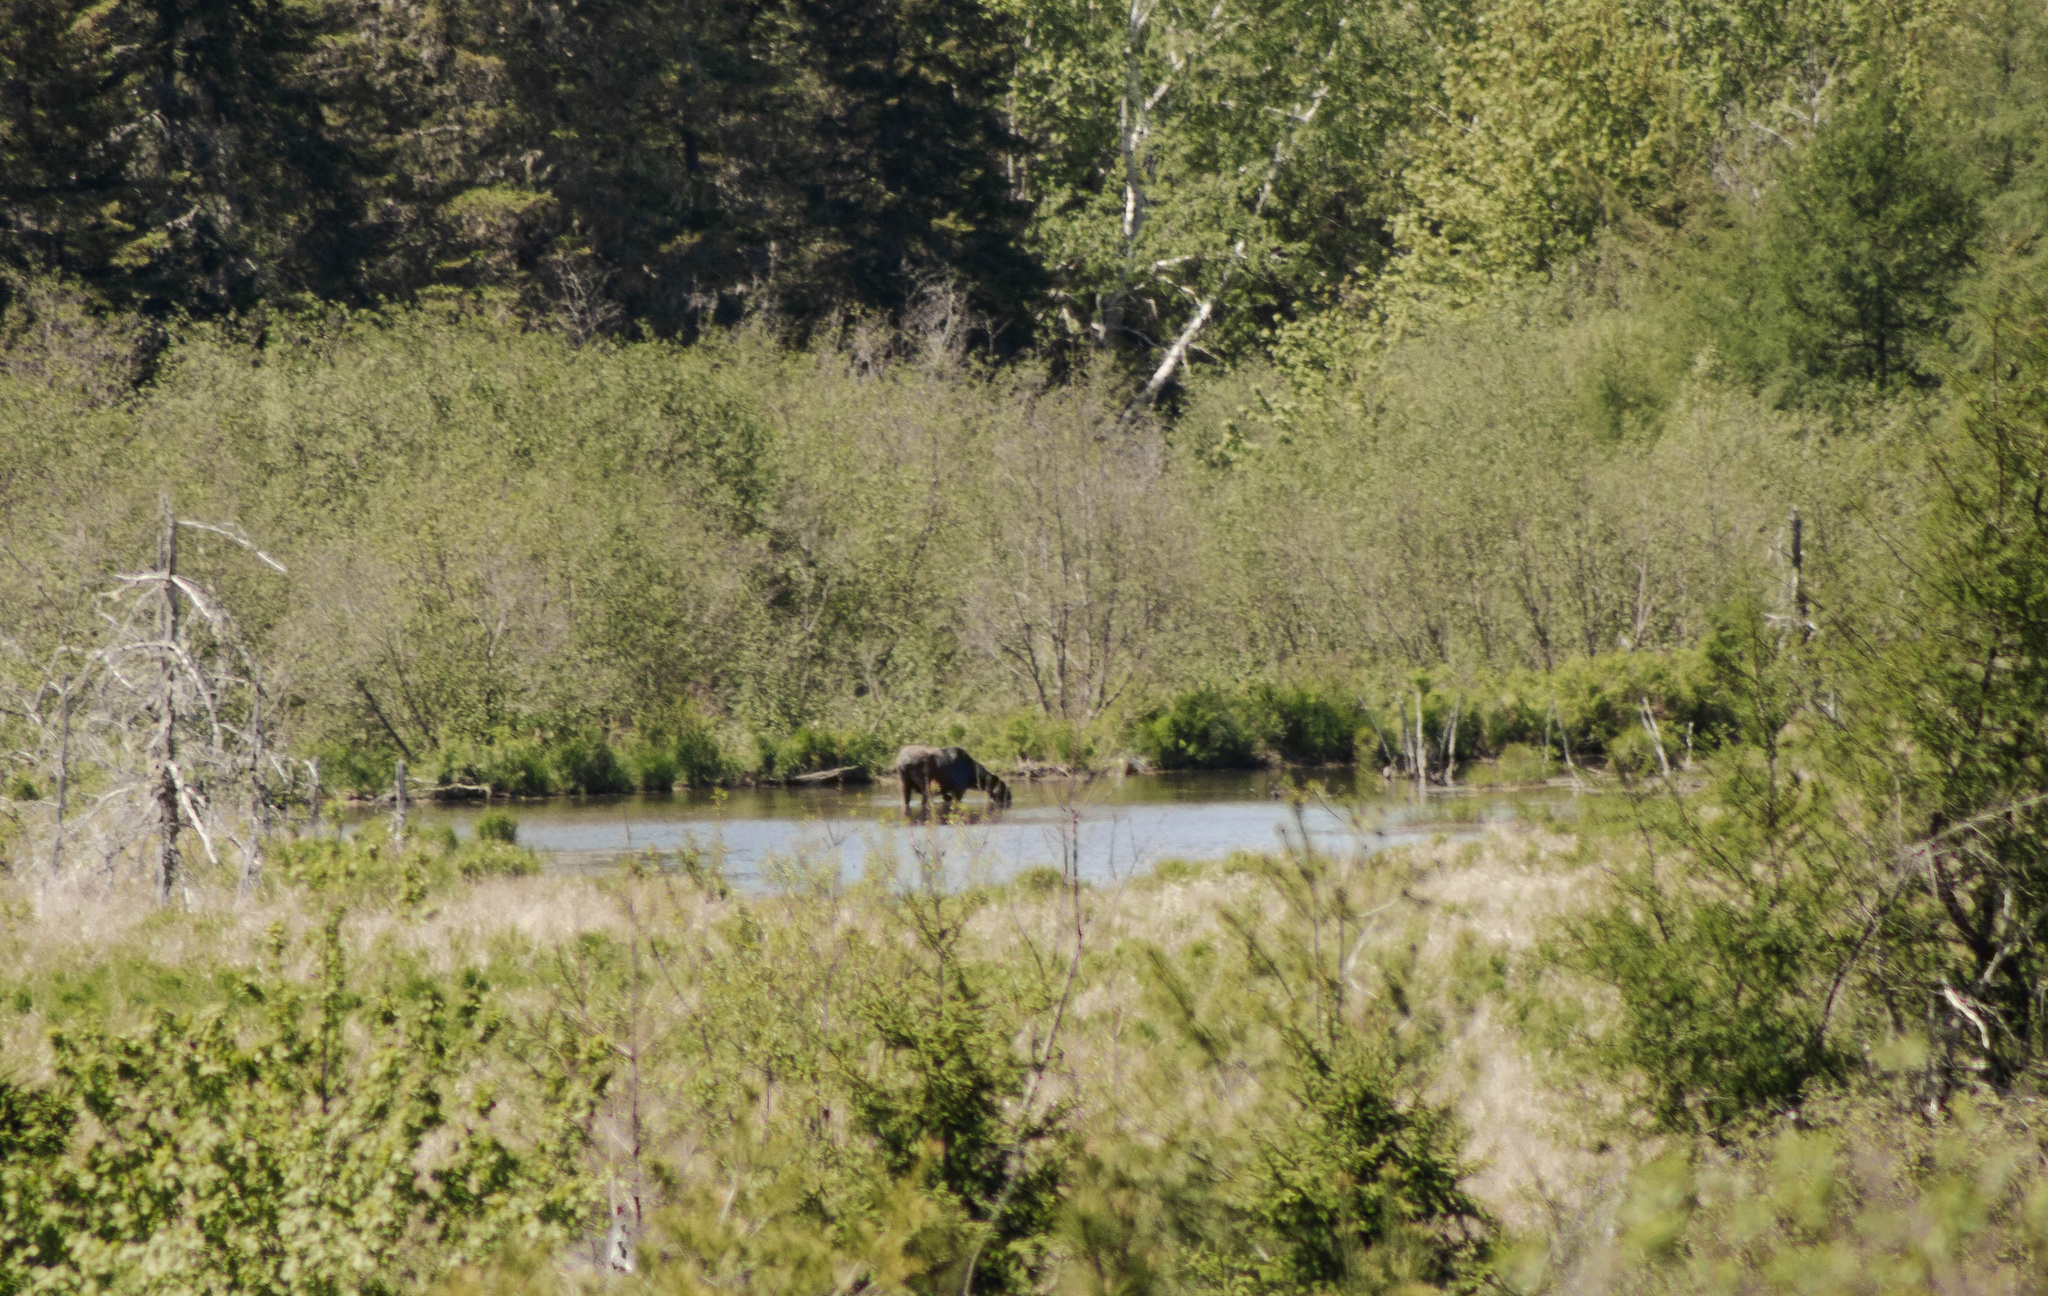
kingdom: Animalia
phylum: Chordata
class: Mammalia
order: Artiodactyla
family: Cervidae
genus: Alces
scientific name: Alces alces
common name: Moose
